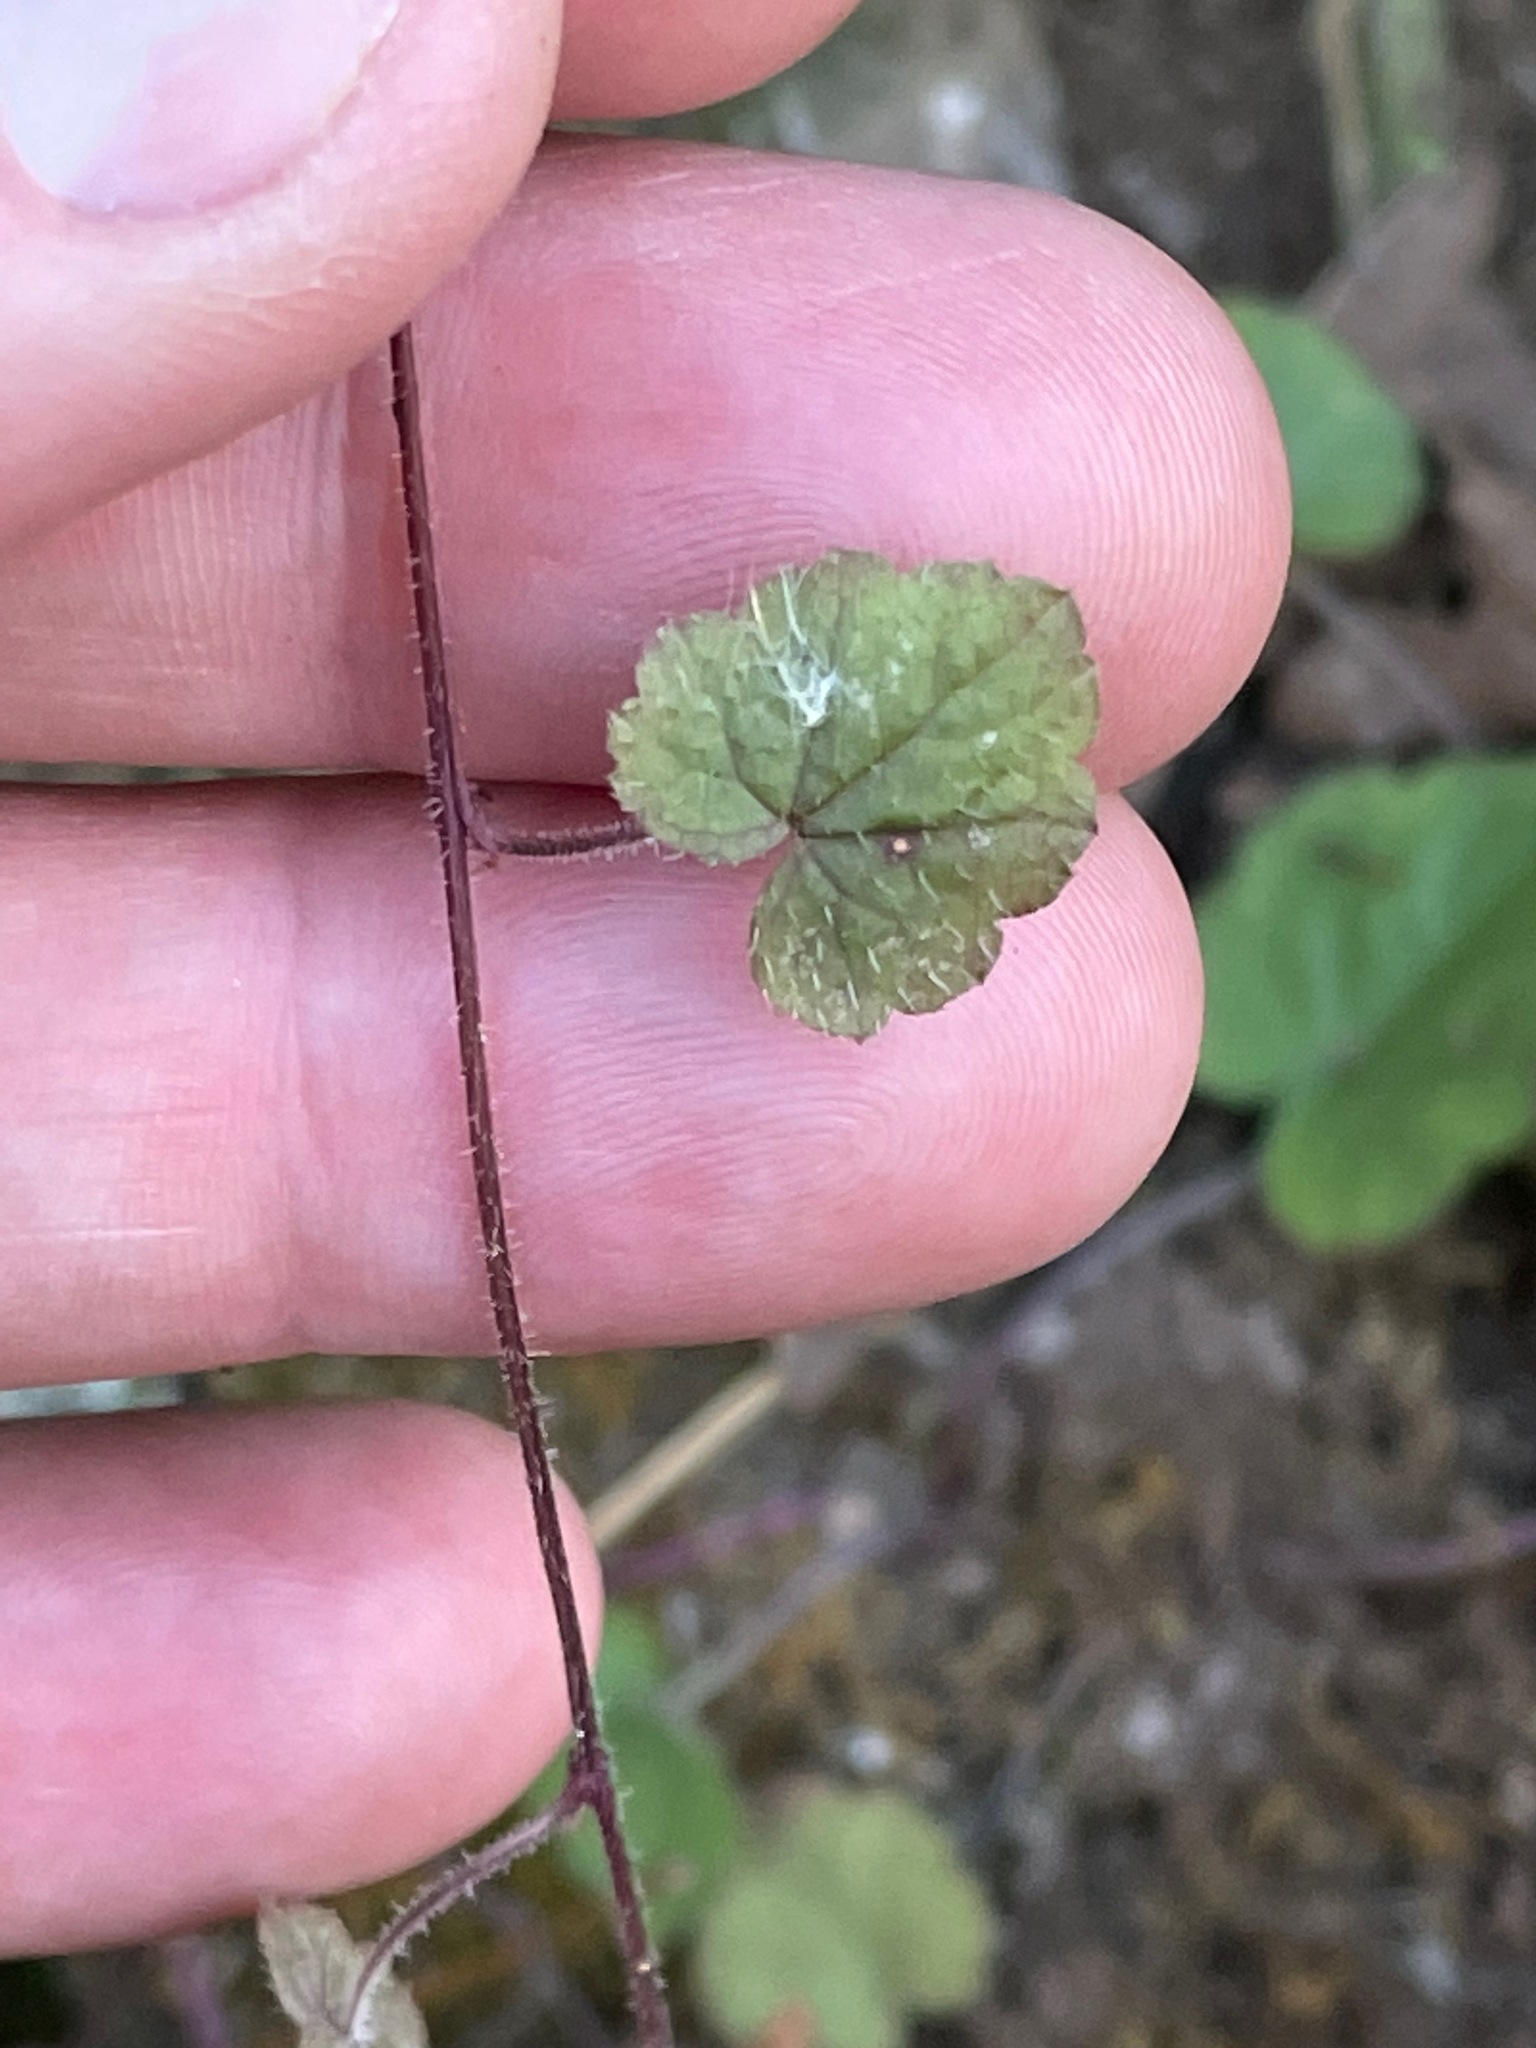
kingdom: Plantae
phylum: Tracheophyta
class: Magnoliopsida
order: Saxifragales
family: Saxifragaceae
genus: Tiarella
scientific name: Tiarella stolonifera
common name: Stoloniferous foamflower
